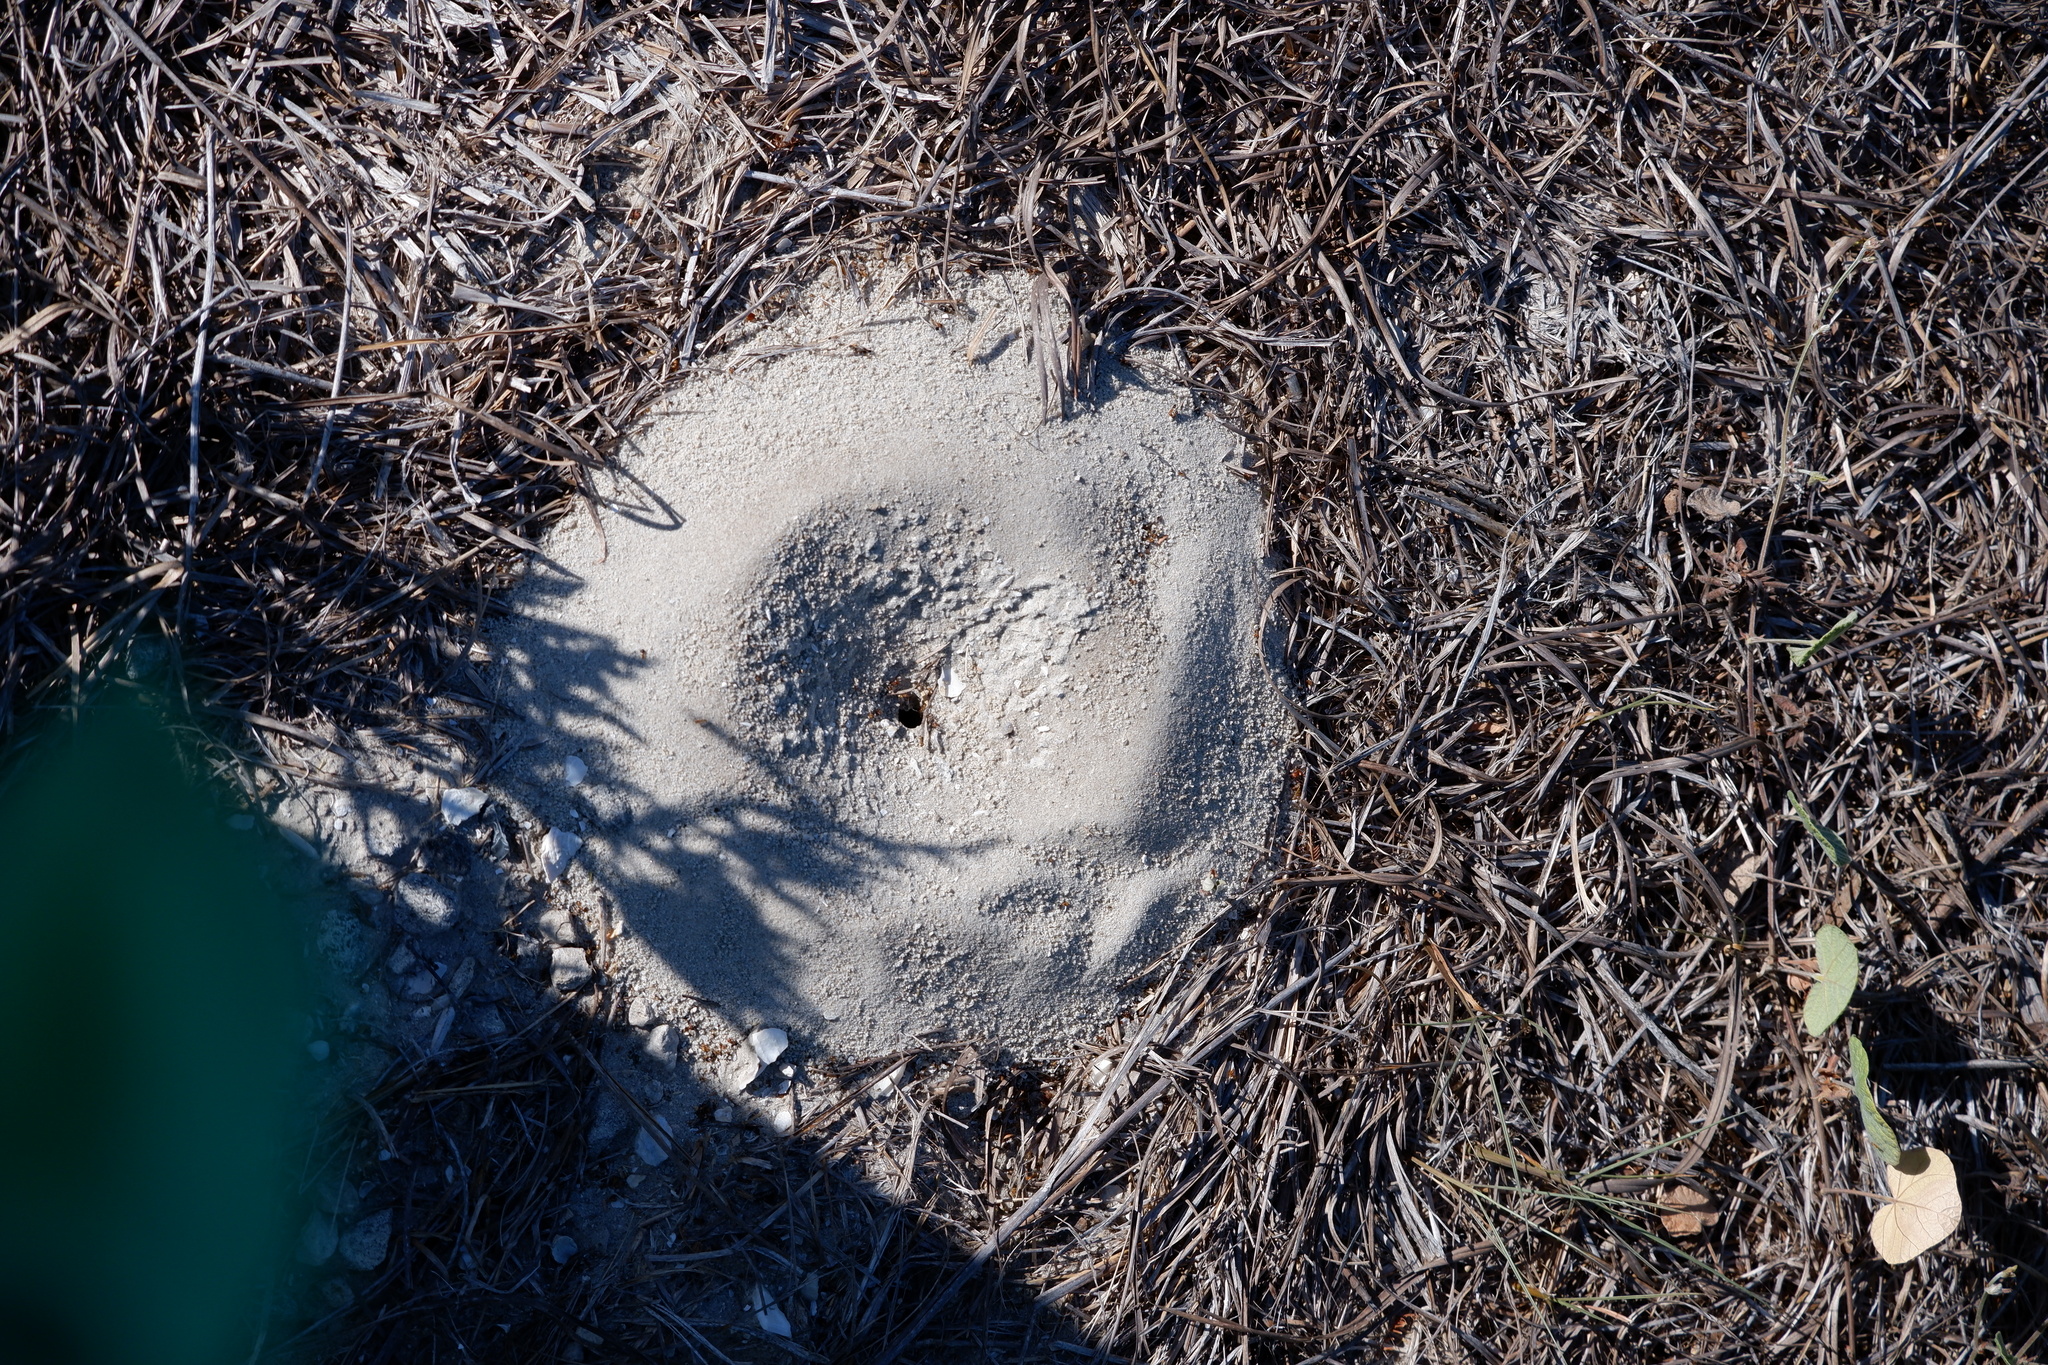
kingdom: Animalia
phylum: Arthropoda
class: Insecta
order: Hymenoptera
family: Formicidae
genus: Dorymyrmex
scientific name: Dorymyrmex flavus
